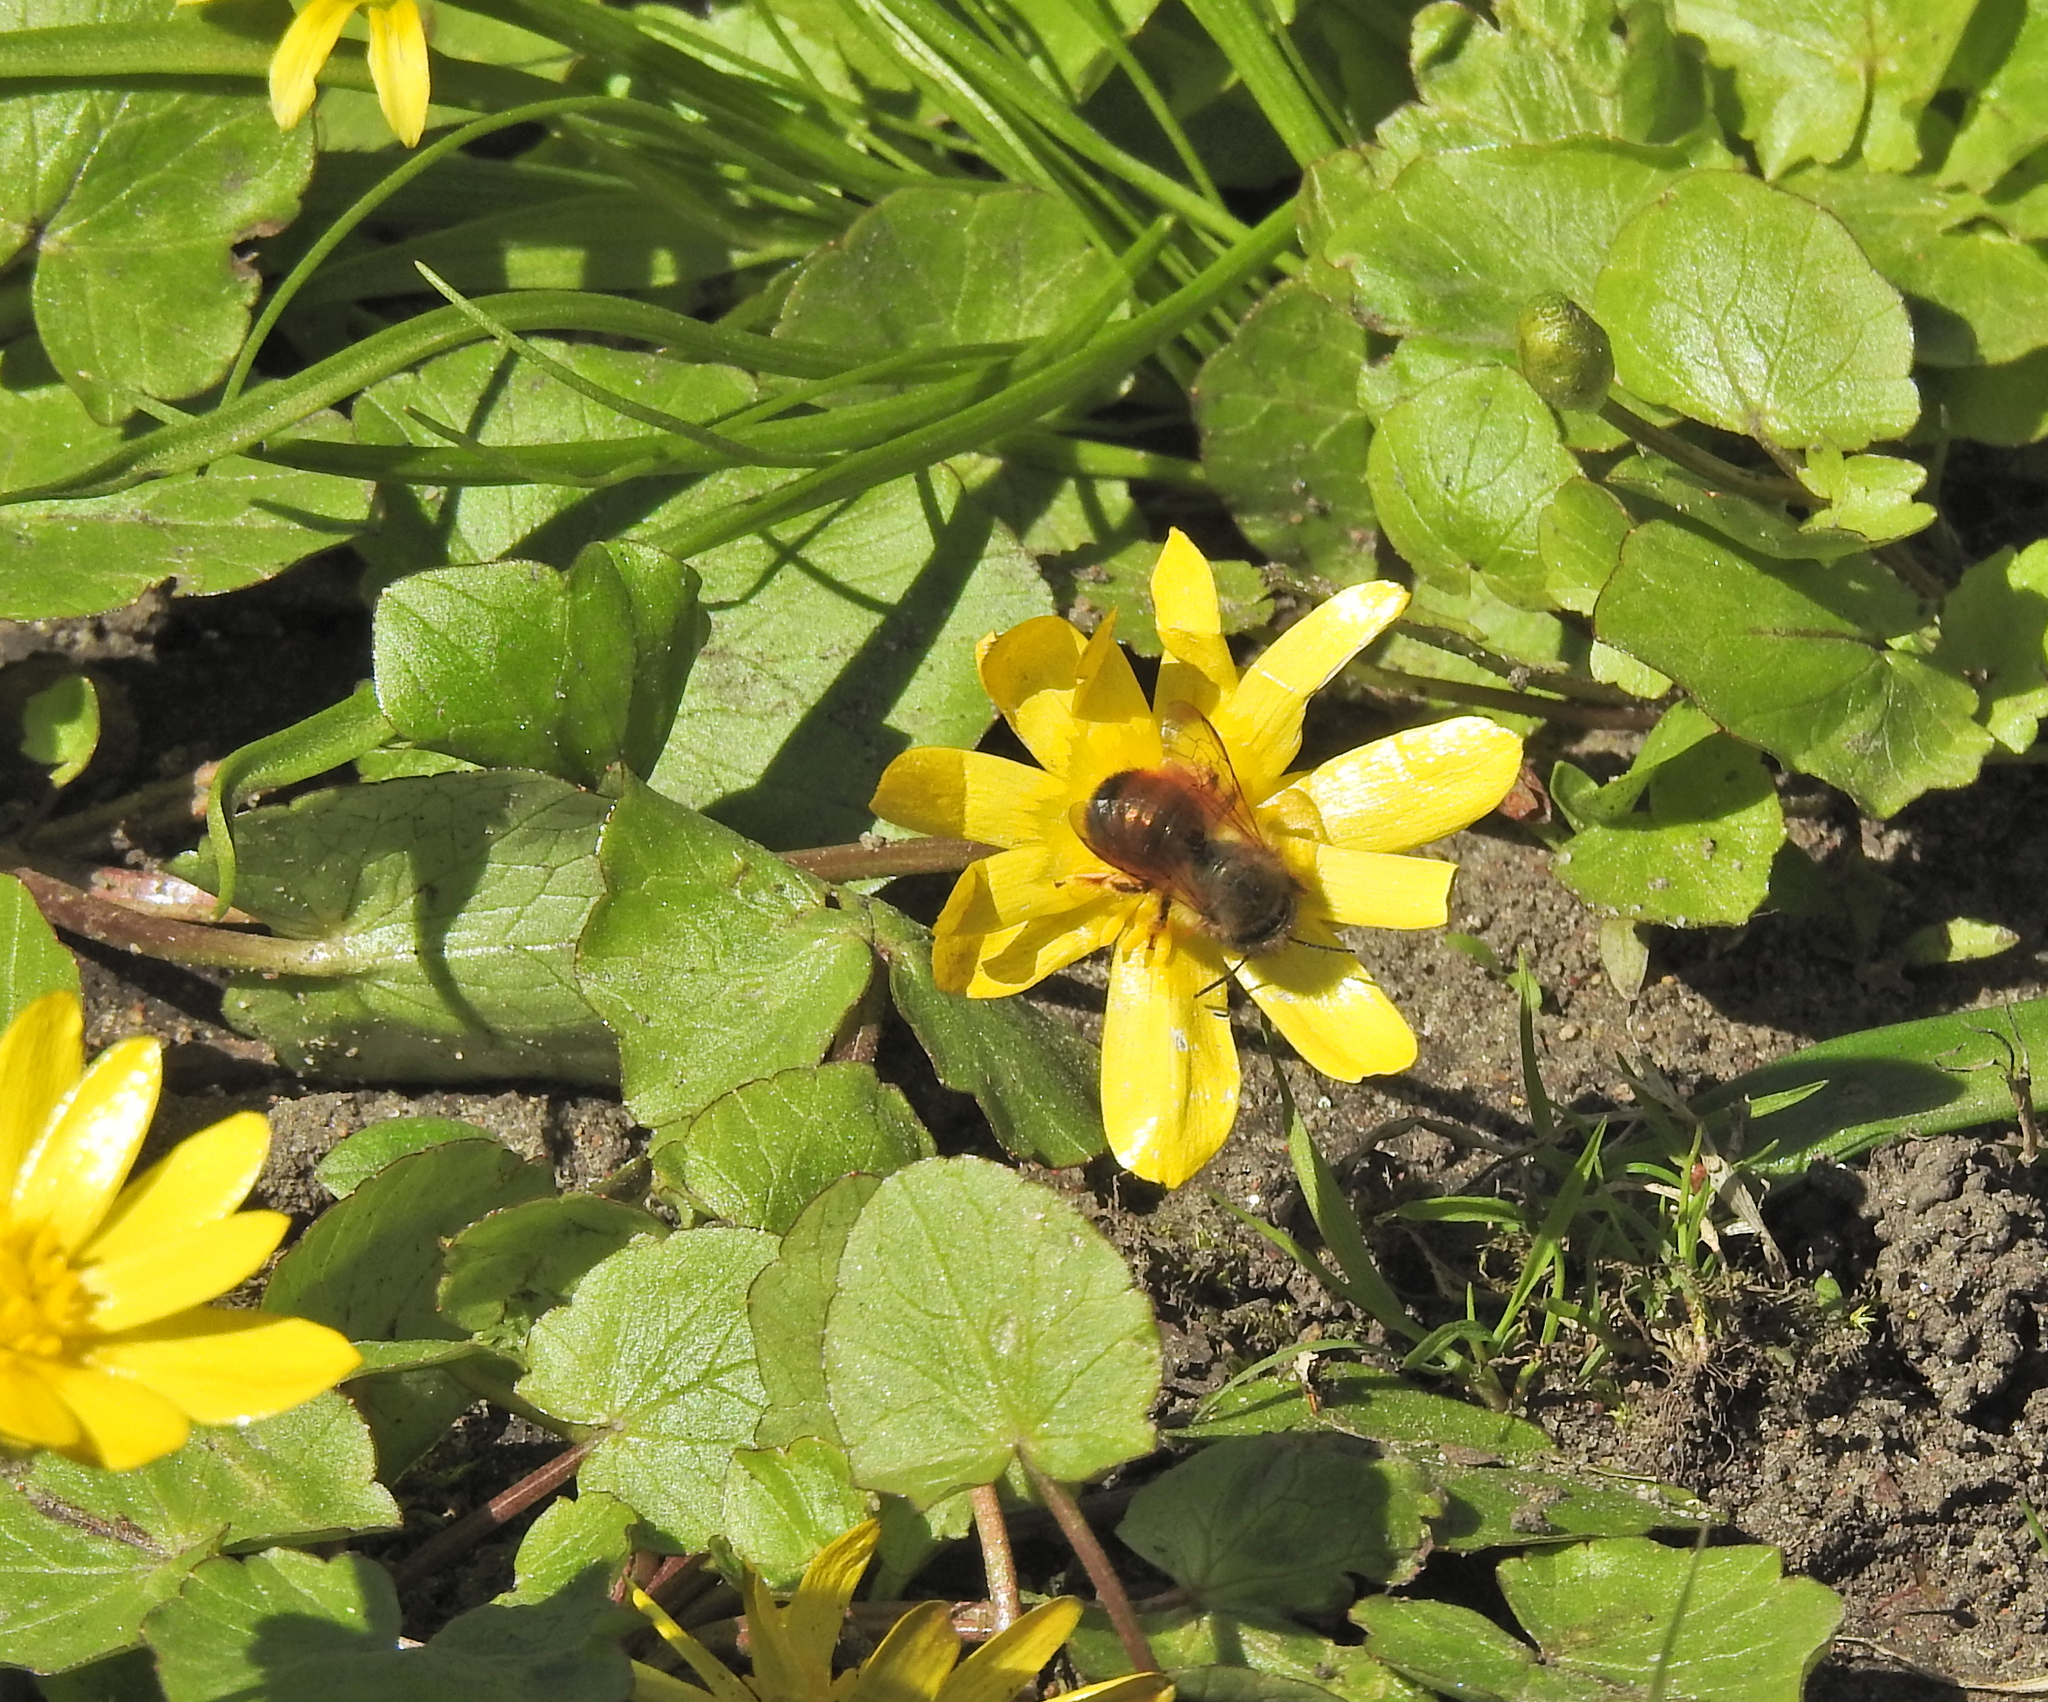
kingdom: Animalia
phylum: Arthropoda
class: Insecta
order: Hymenoptera
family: Megachilidae
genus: Osmia
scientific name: Osmia bicornis
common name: Red mason bee
